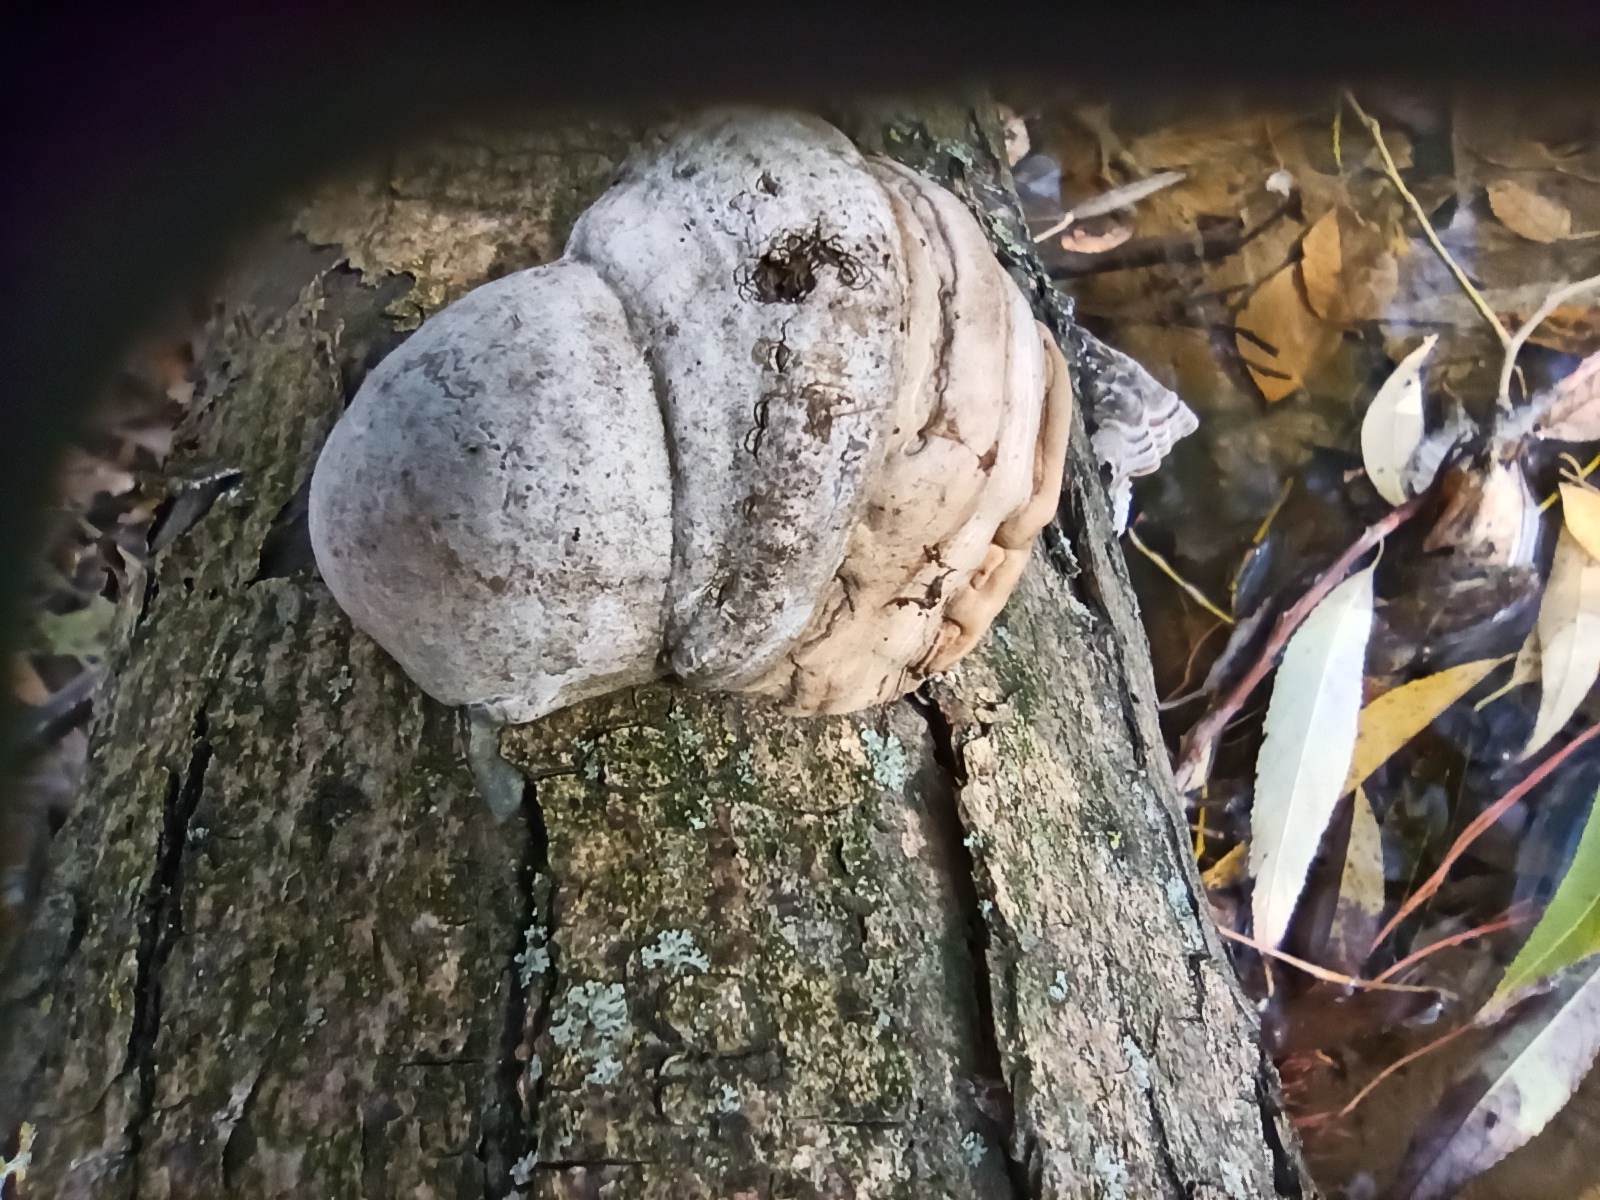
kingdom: Fungi
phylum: Basidiomycota
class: Agaricomycetes
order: Polyporales
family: Polyporaceae
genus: Fomes
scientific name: Fomes fomentarius
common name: Hoof fungus
